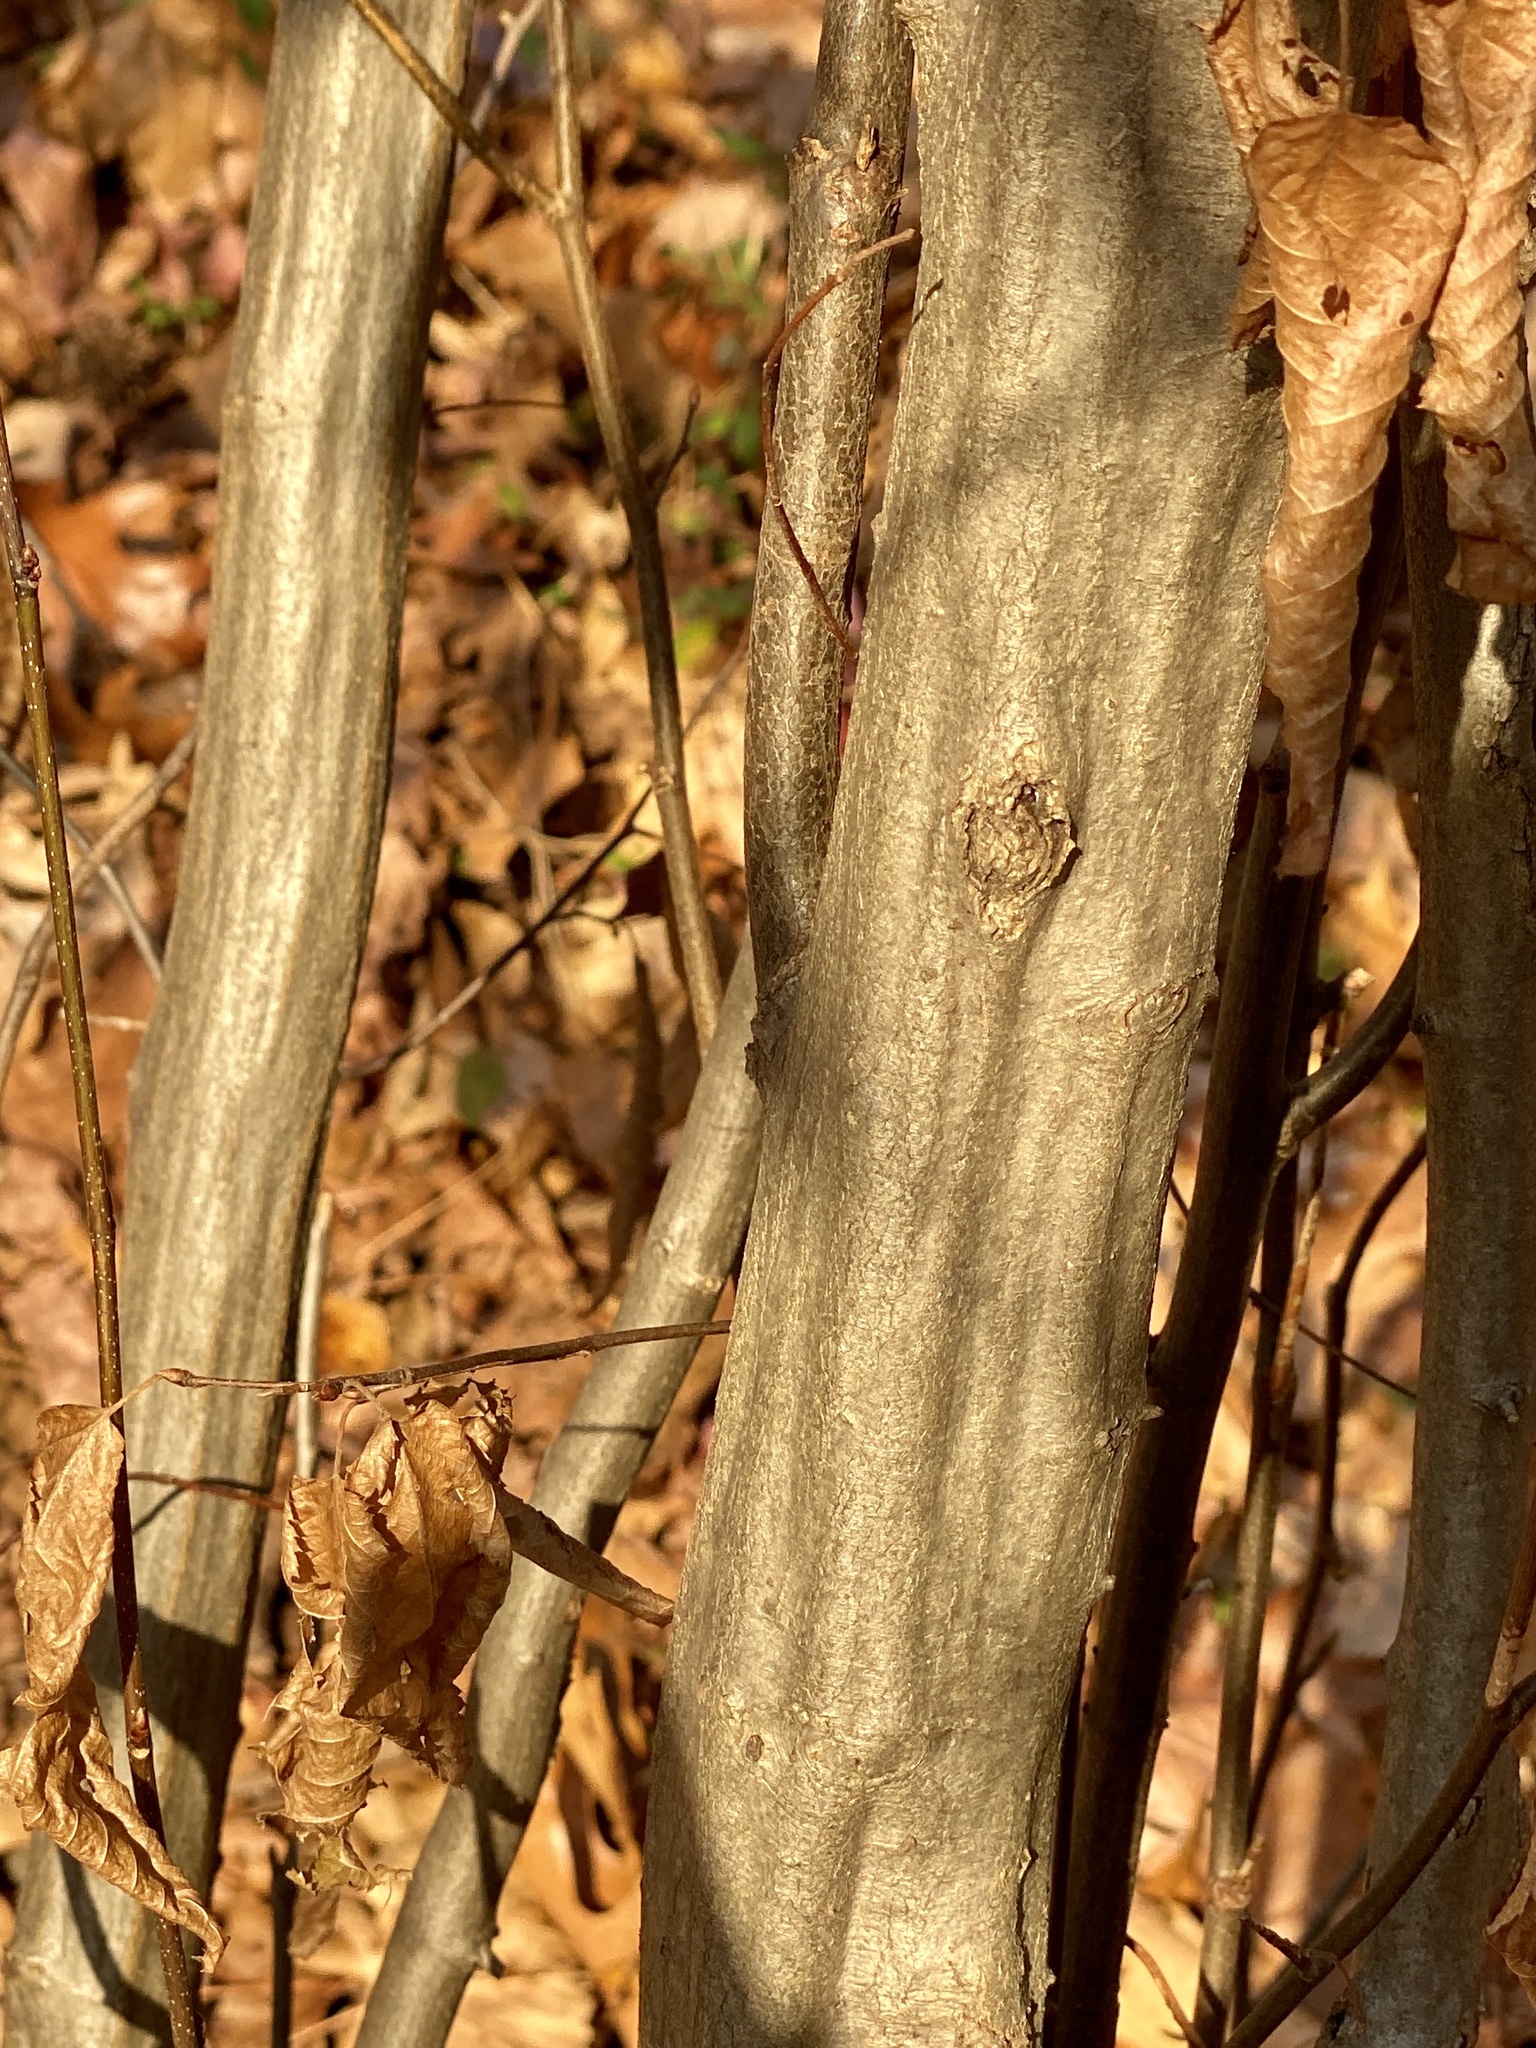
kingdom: Plantae
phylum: Tracheophyta
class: Magnoliopsida
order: Fagales
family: Betulaceae
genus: Carpinus
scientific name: Carpinus caroliniana
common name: American hornbeam
